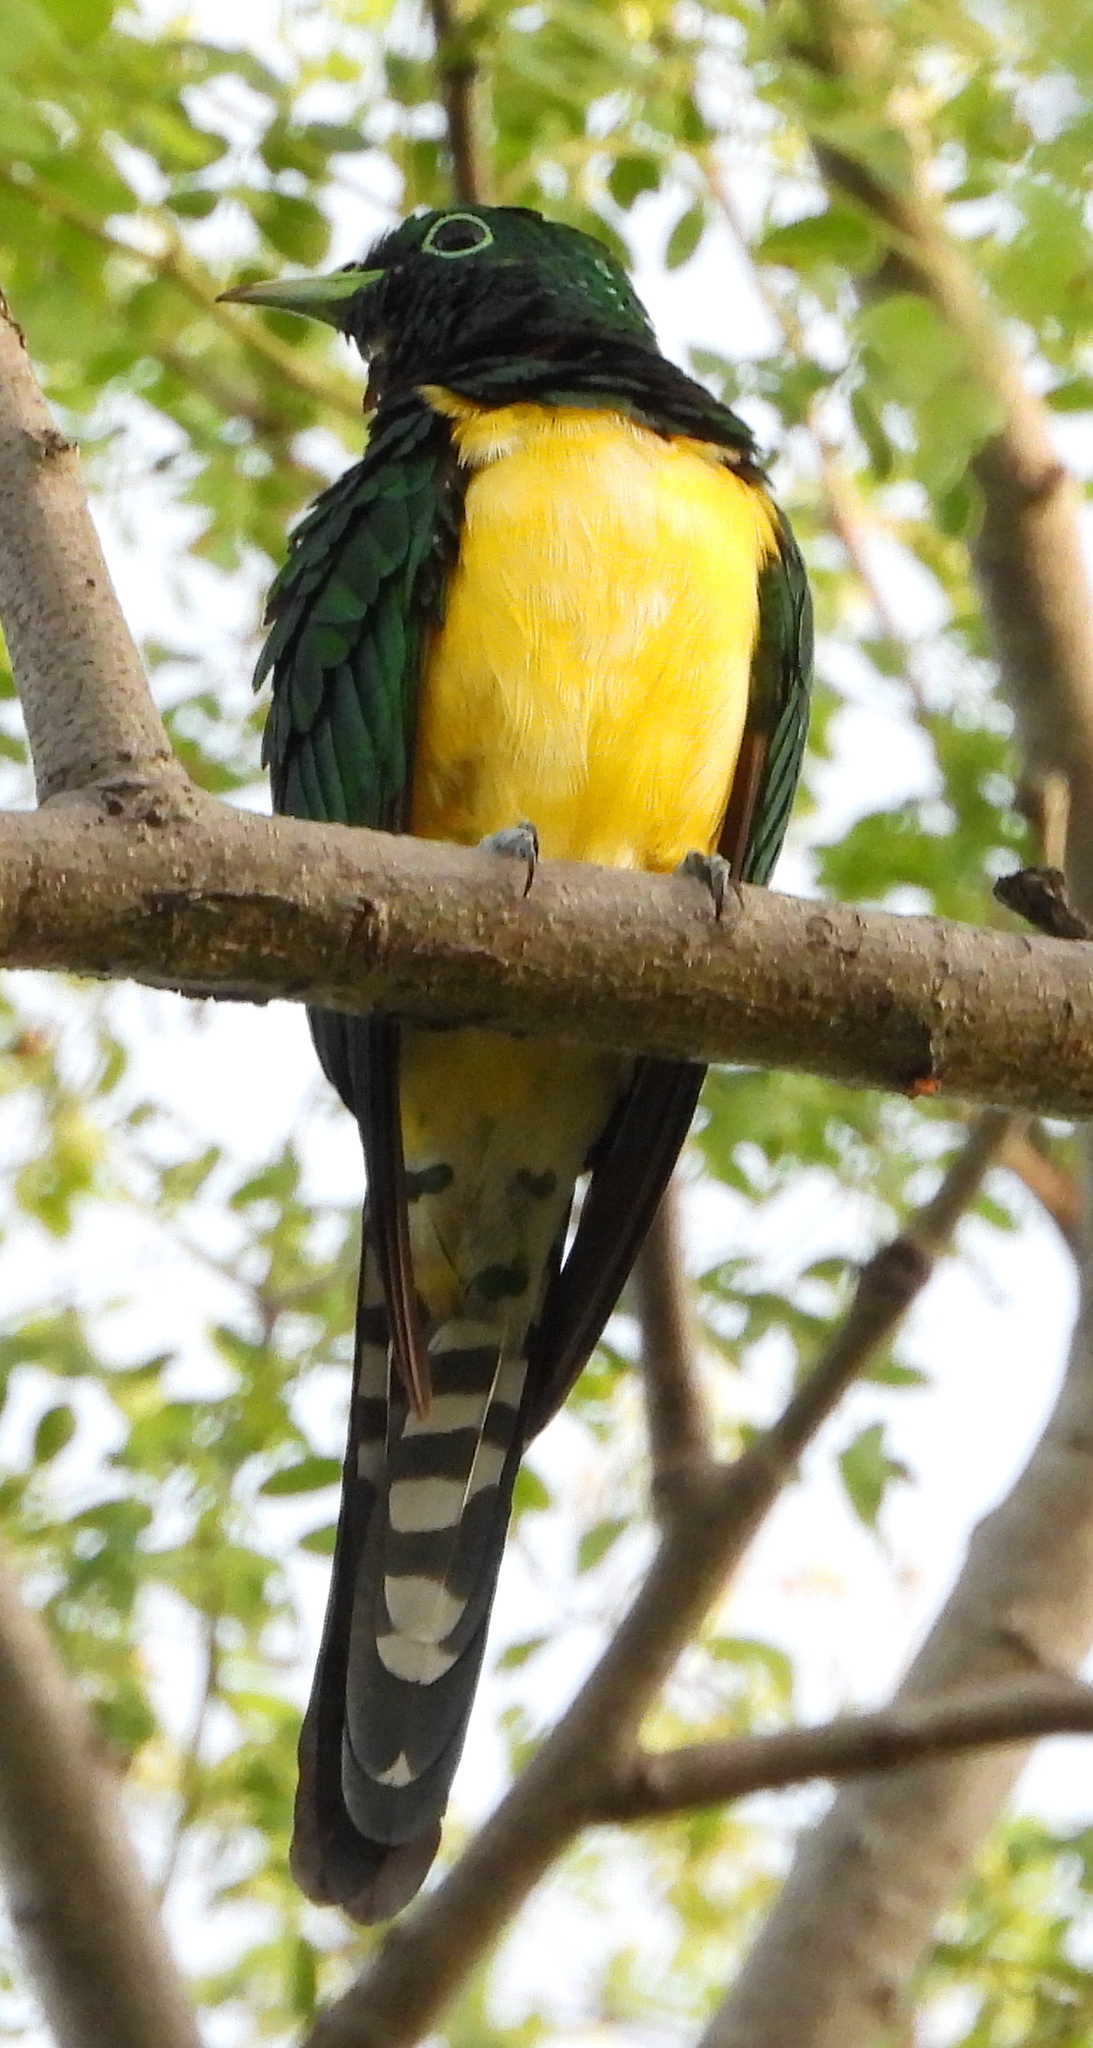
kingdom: Animalia
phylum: Chordata
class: Aves
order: Cuculiformes
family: Cuculidae
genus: Chrysococcyx
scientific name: Chrysococcyx cupreus
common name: African emerald cuckoo
